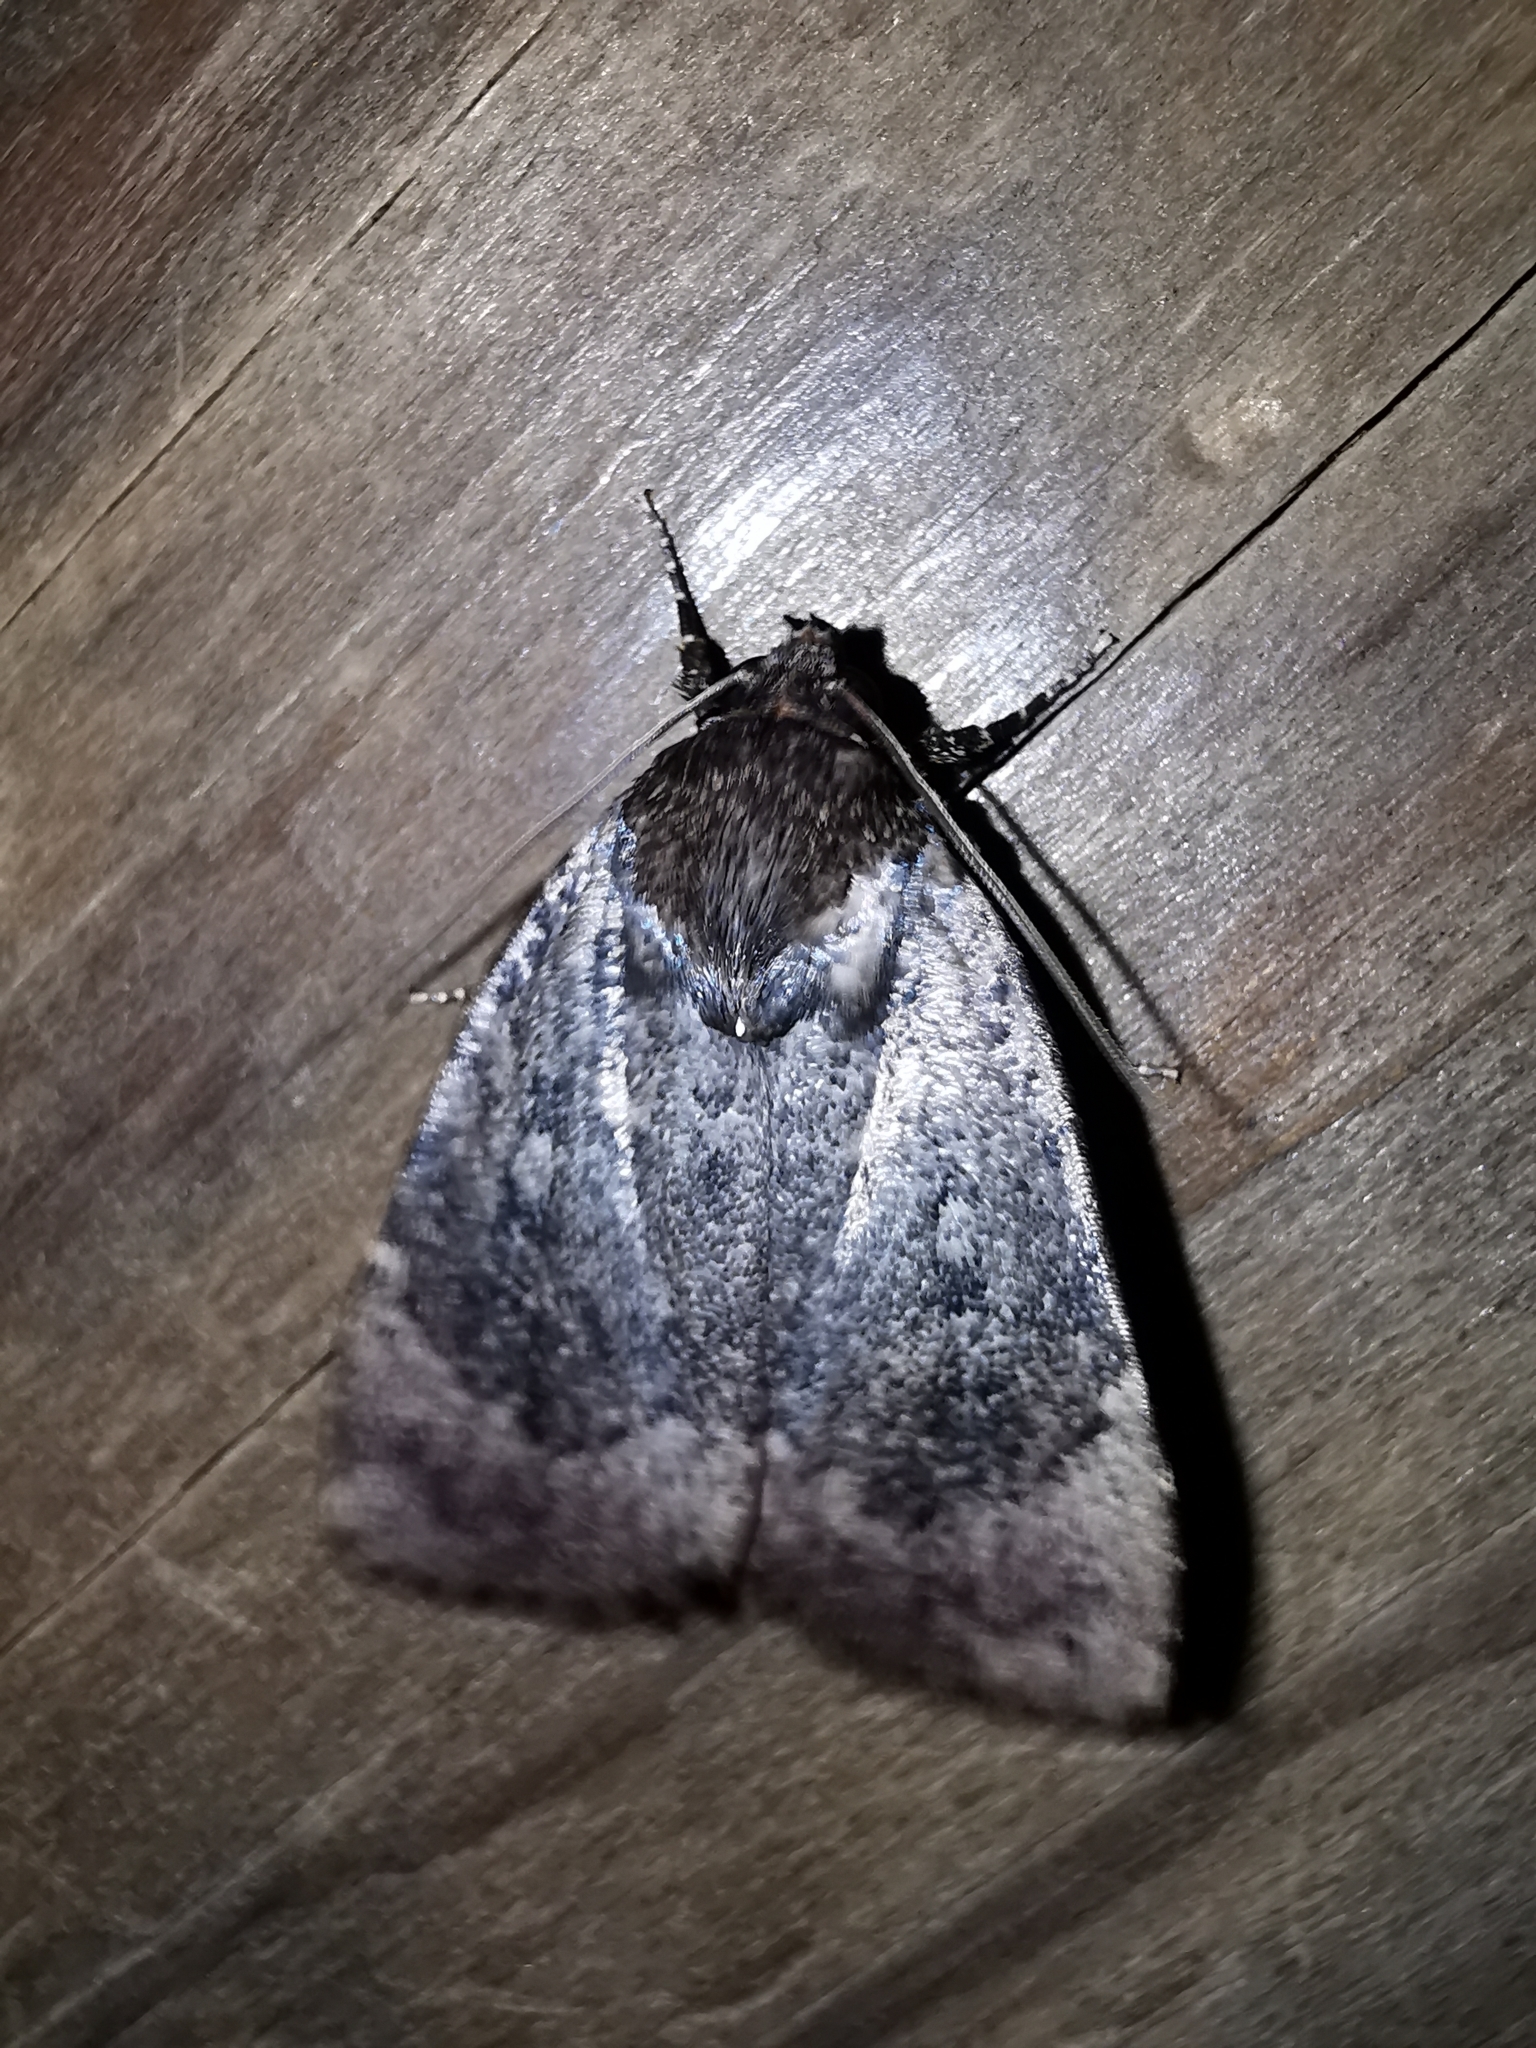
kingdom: Animalia
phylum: Arthropoda
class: Insecta
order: Lepidoptera
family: Noctuidae
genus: Amphipyra
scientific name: Amphipyra pyramidoides
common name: American copper underwing
